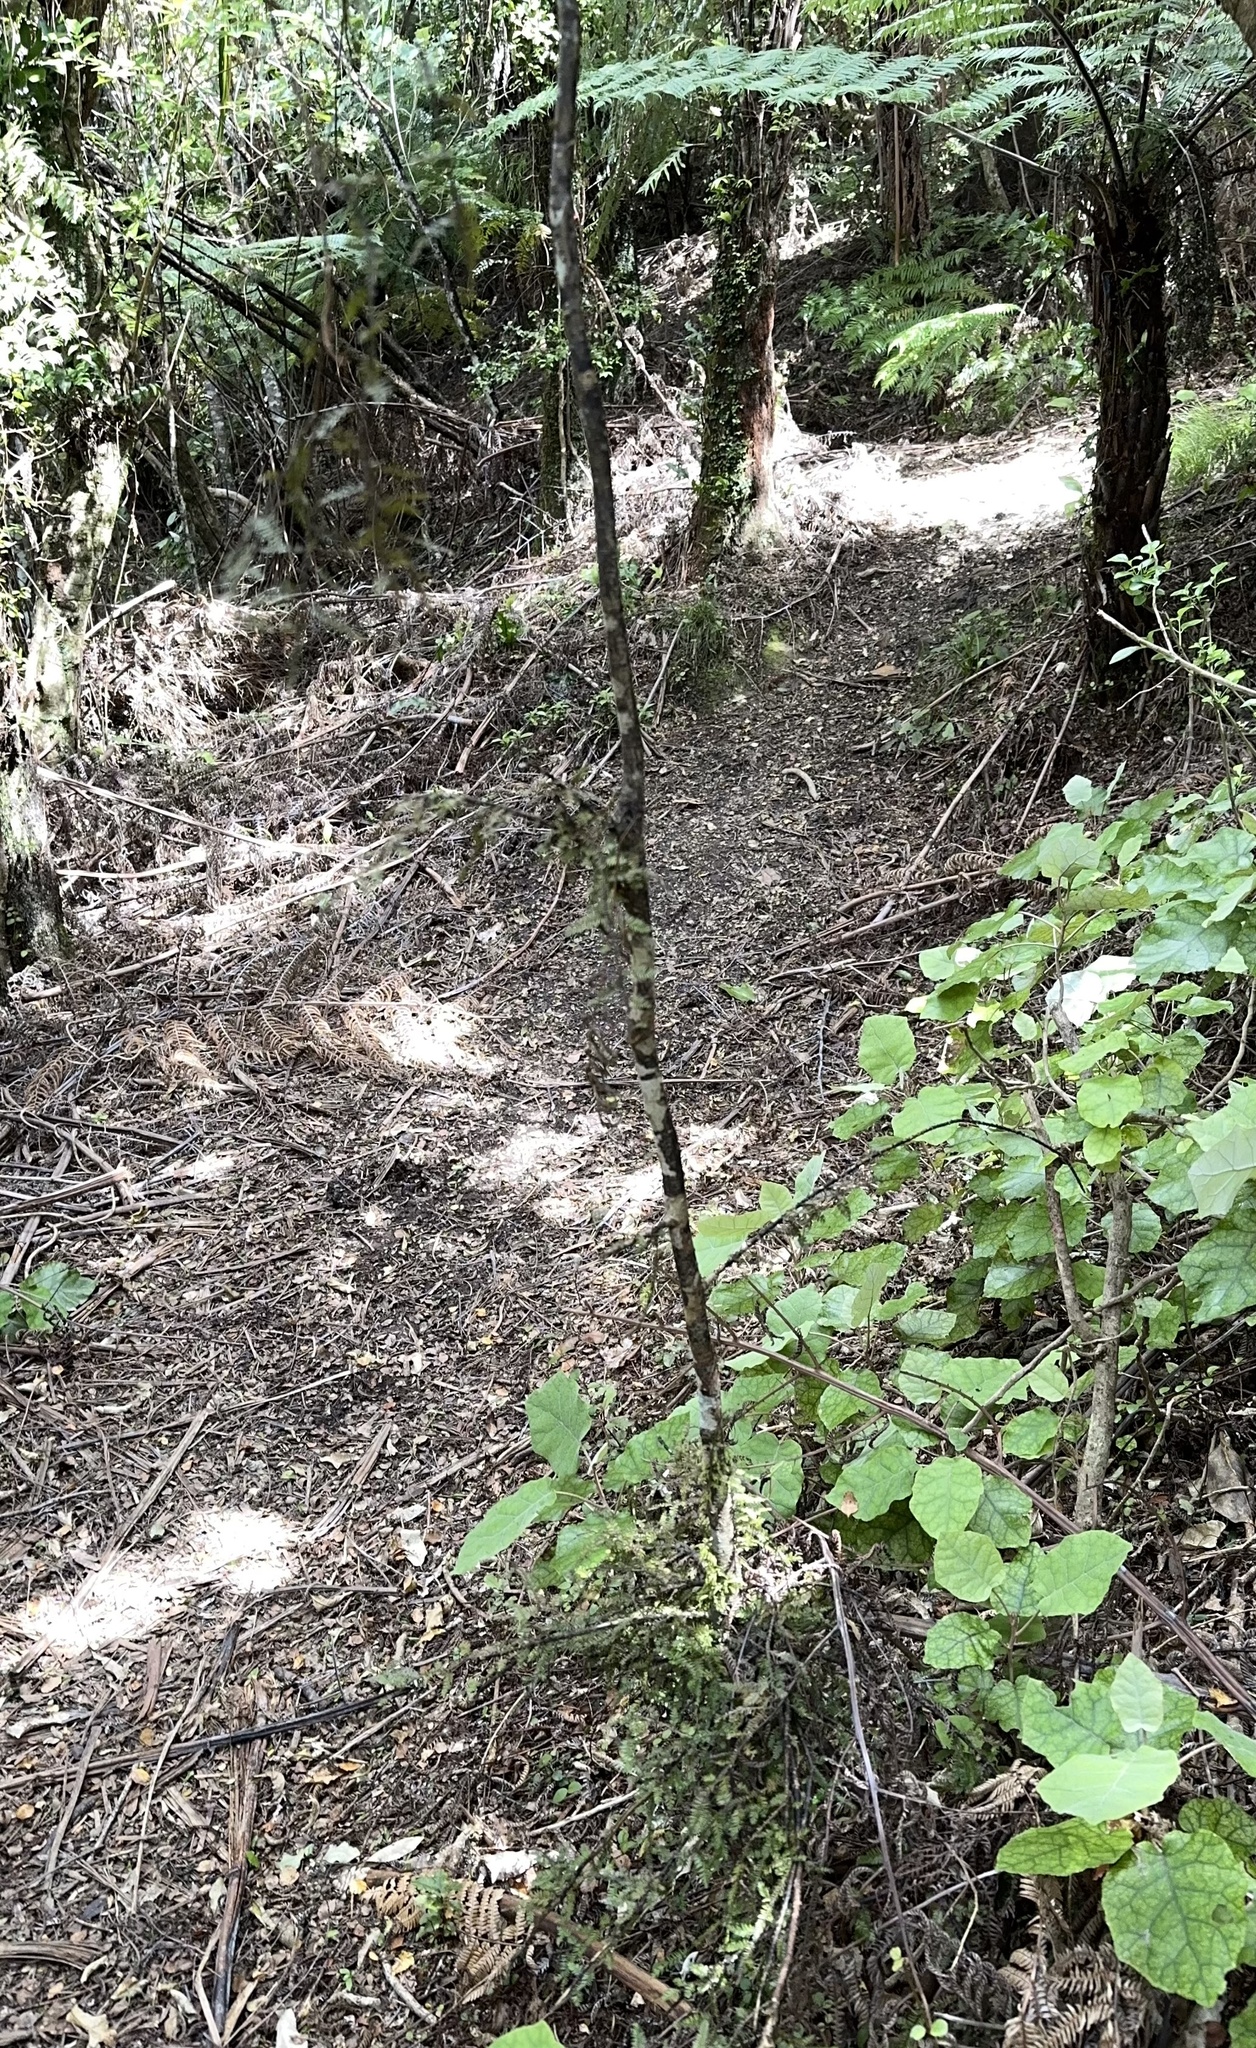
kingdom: Plantae
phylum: Tracheophyta
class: Pinopsida
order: Pinales
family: Podocarpaceae
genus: Dacrycarpus
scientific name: Dacrycarpus dacrydioides
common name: White pine
